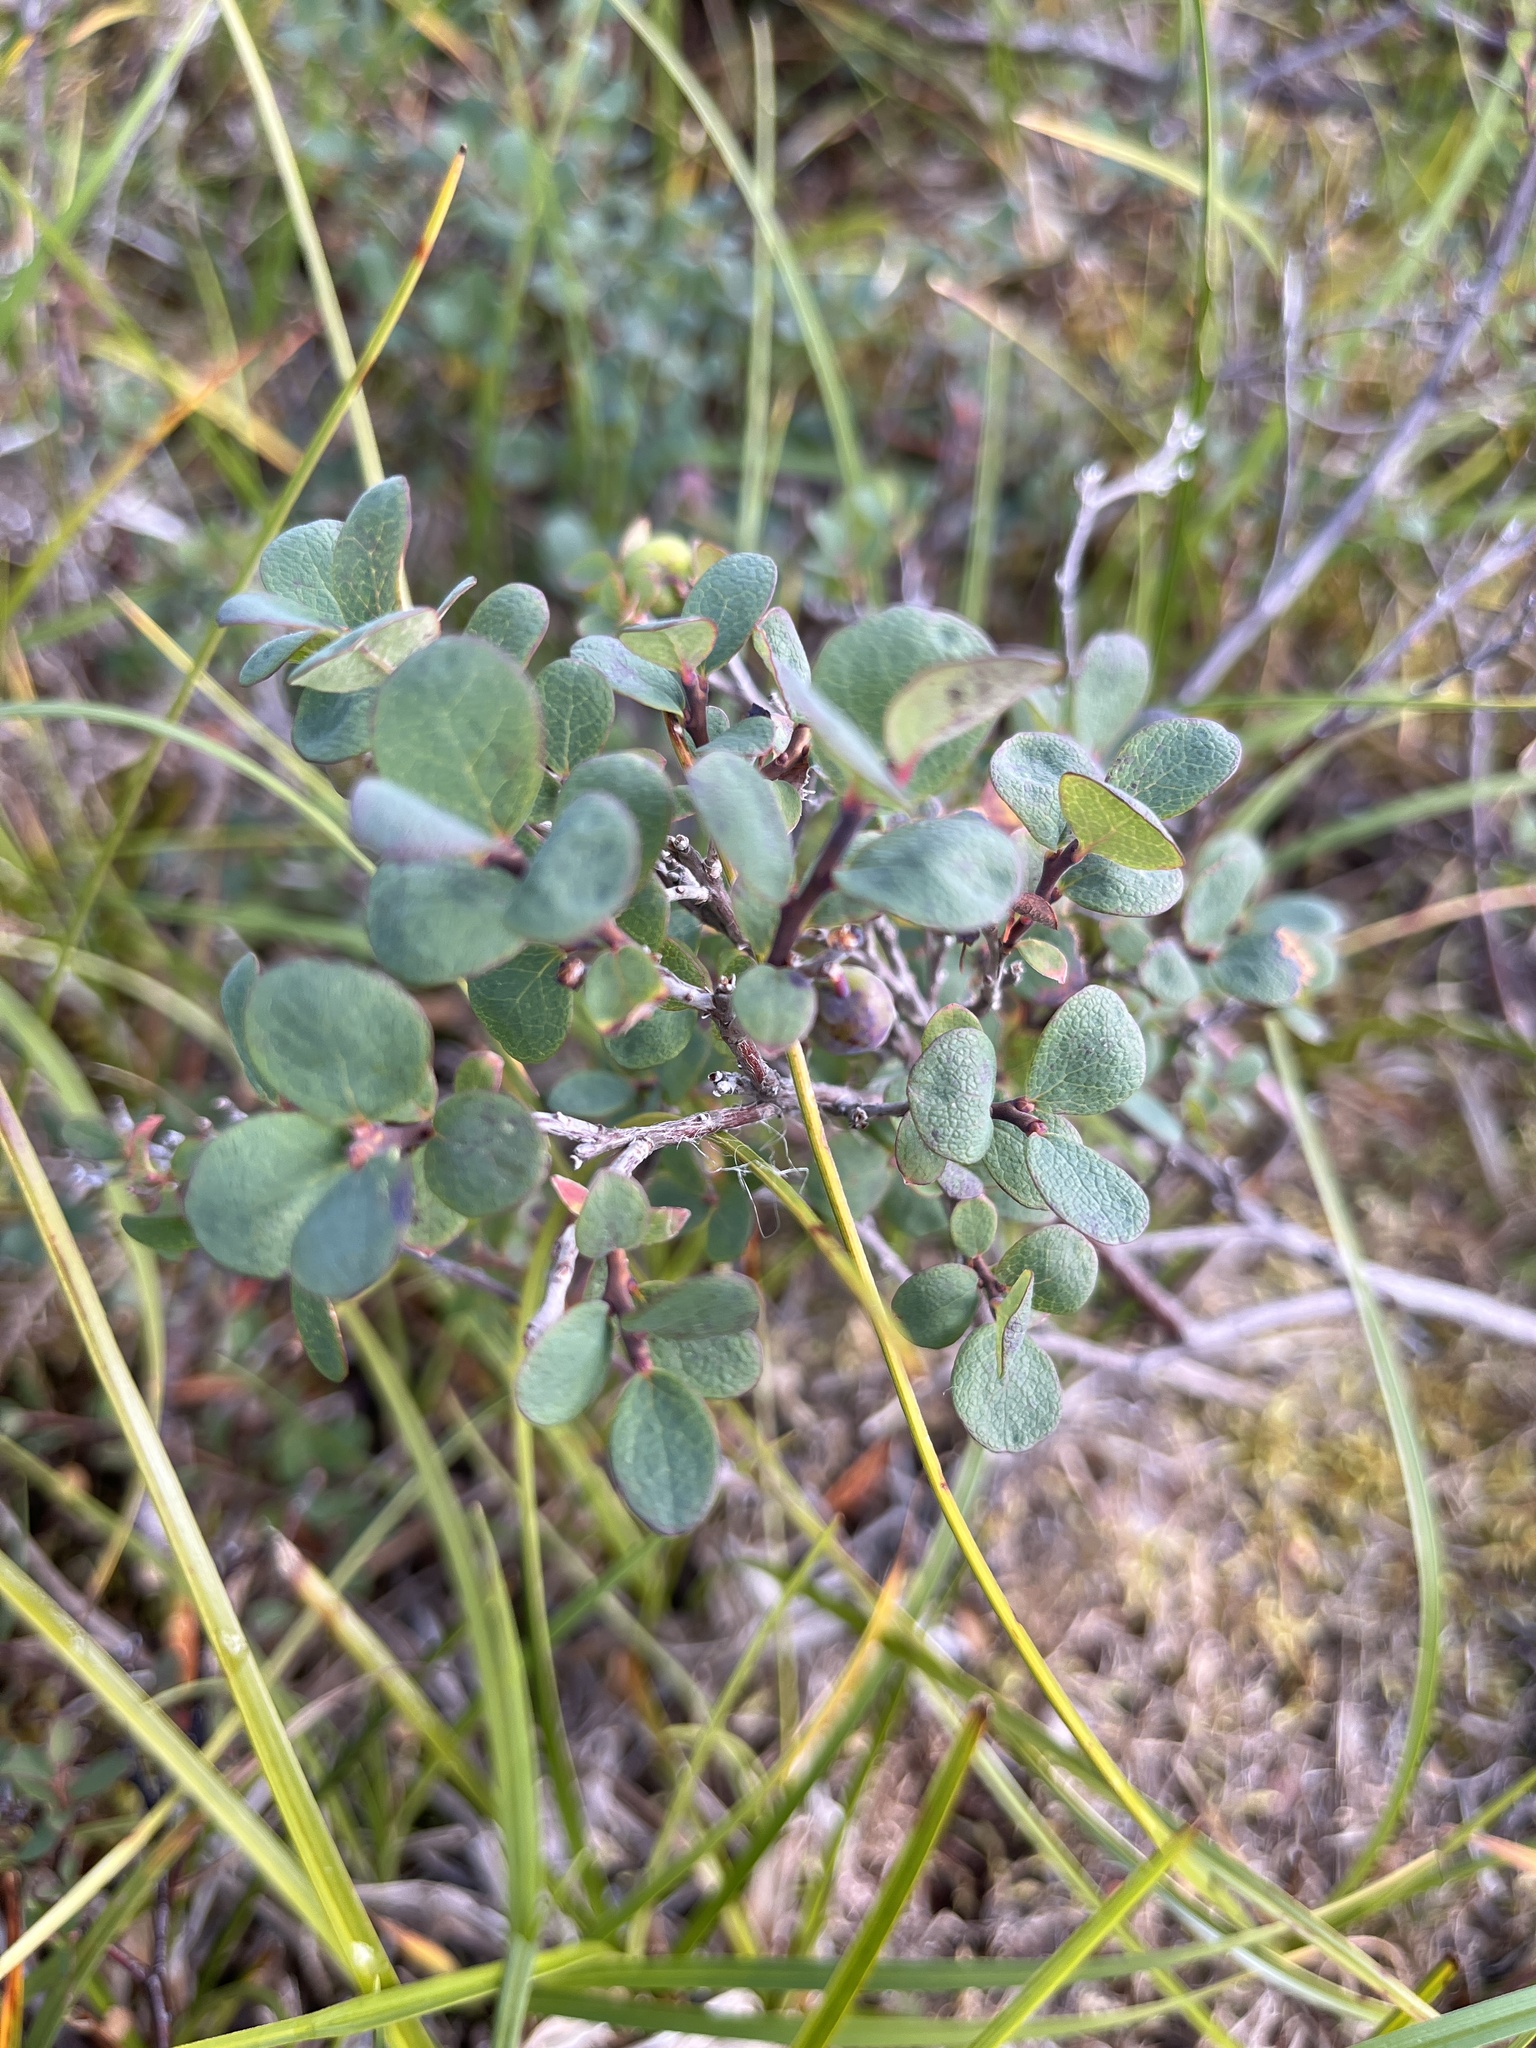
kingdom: Plantae
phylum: Tracheophyta
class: Magnoliopsida
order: Ericales
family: Ericaceae
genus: Vaccinium
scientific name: Vaccinium uliginosum
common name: Bog bilberry
